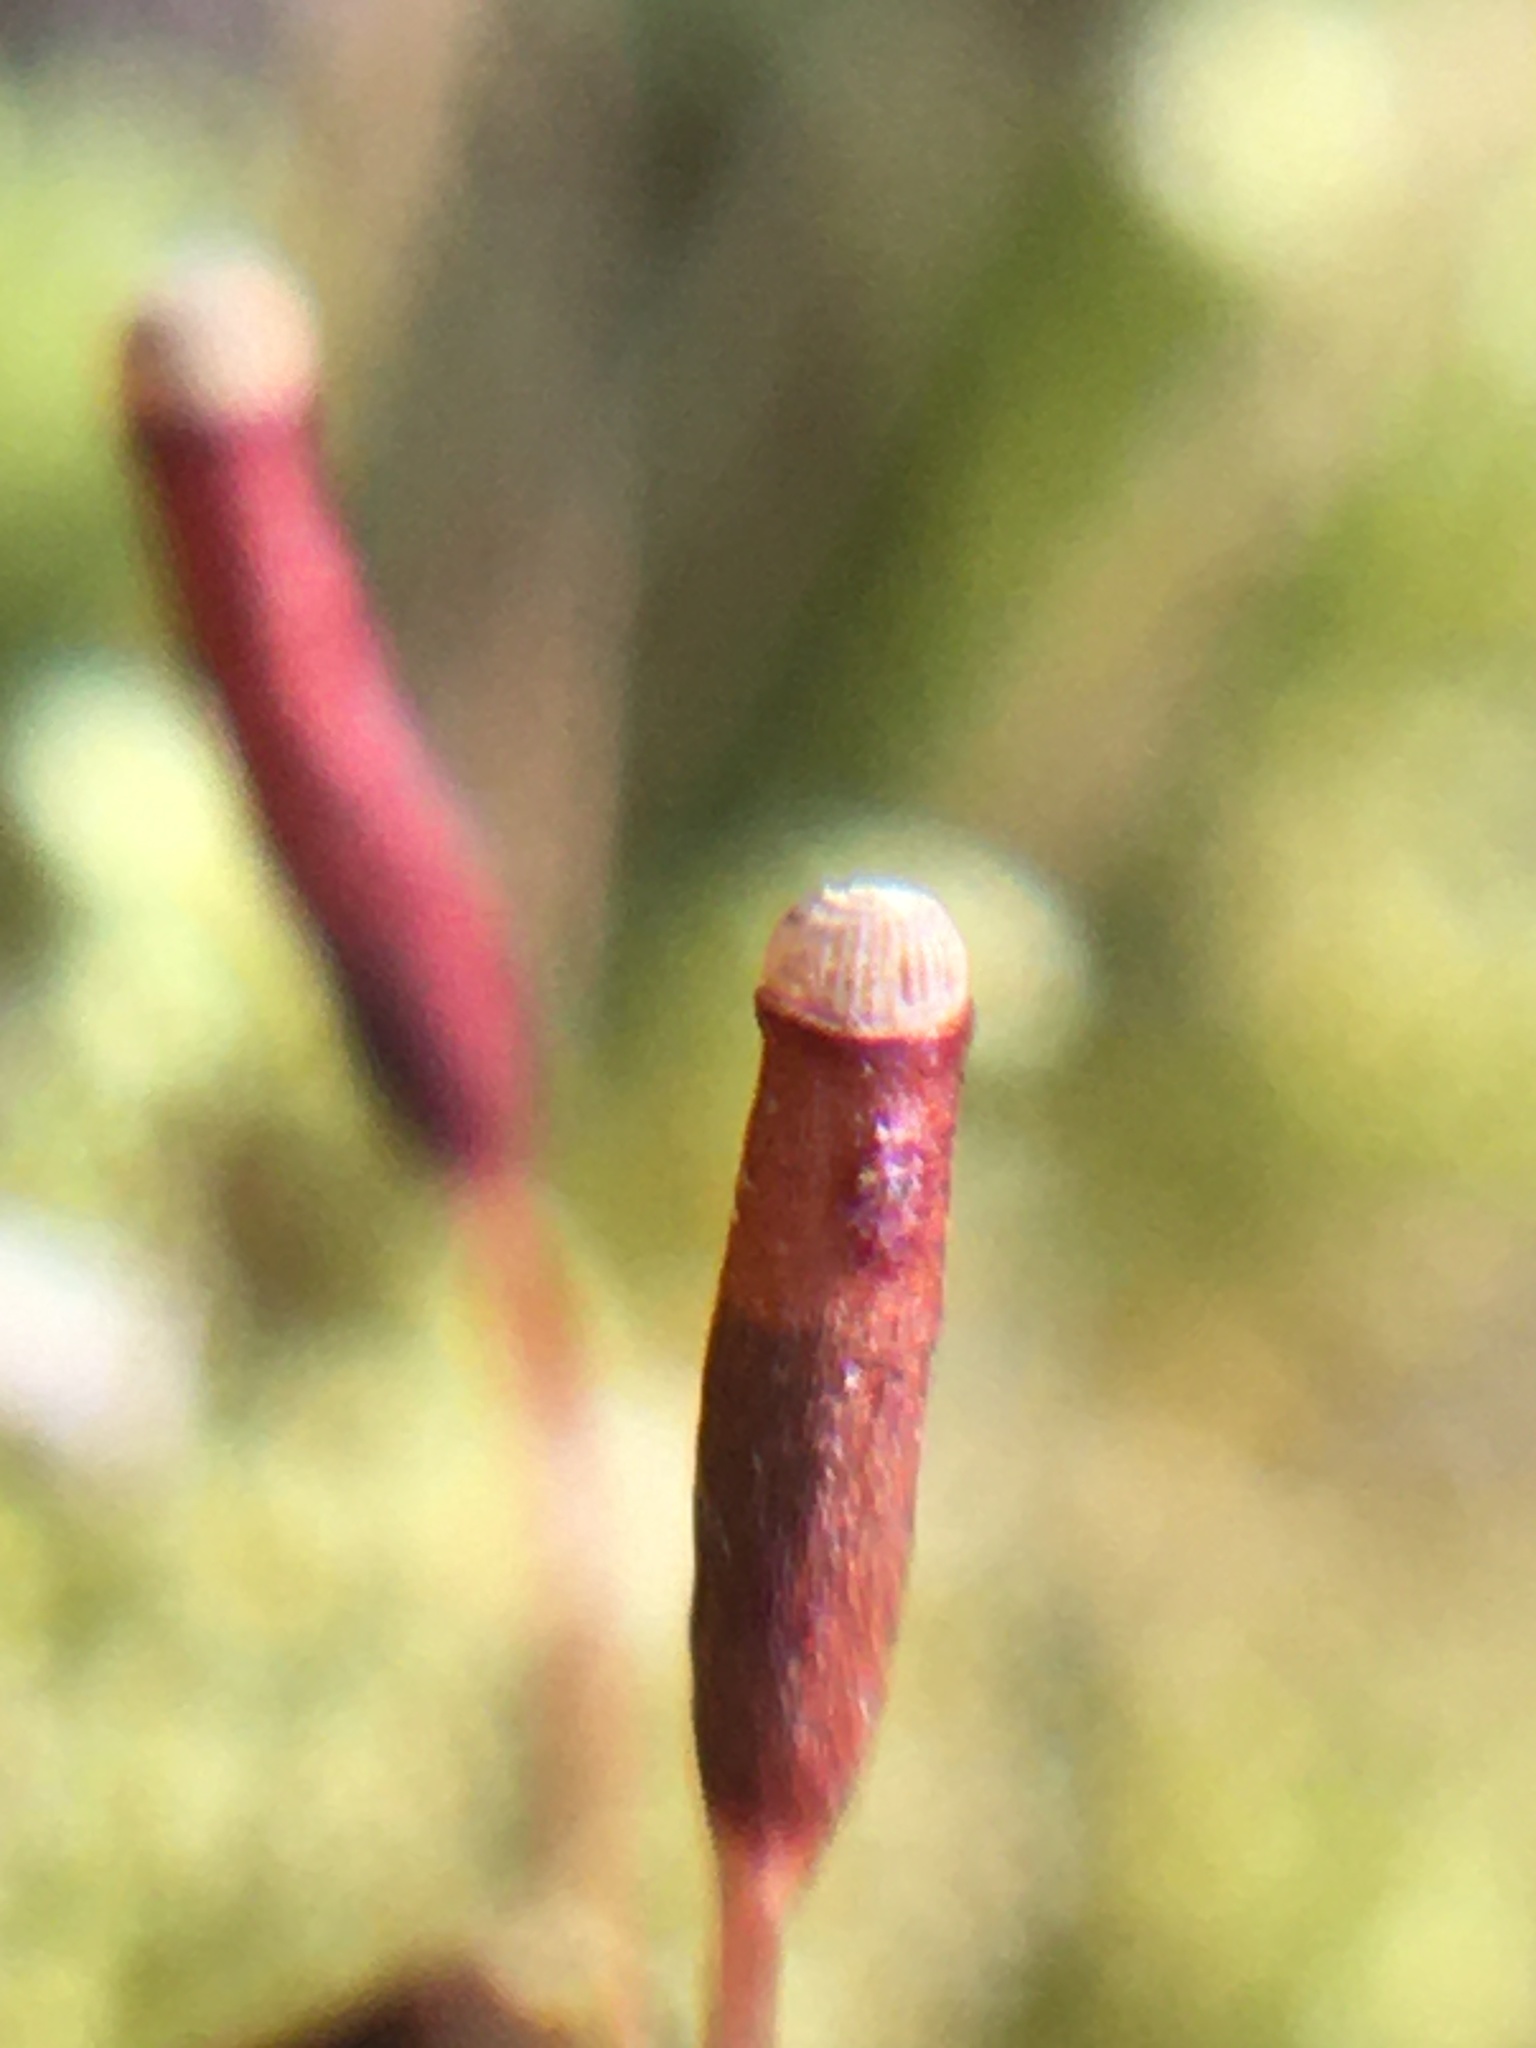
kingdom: Plantae
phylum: Bryophyta
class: Polytrichopsida
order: Polytrichales
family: Polytrichaceae
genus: Atrichum
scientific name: Atrichum angustatum
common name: Lesser smoothcap
